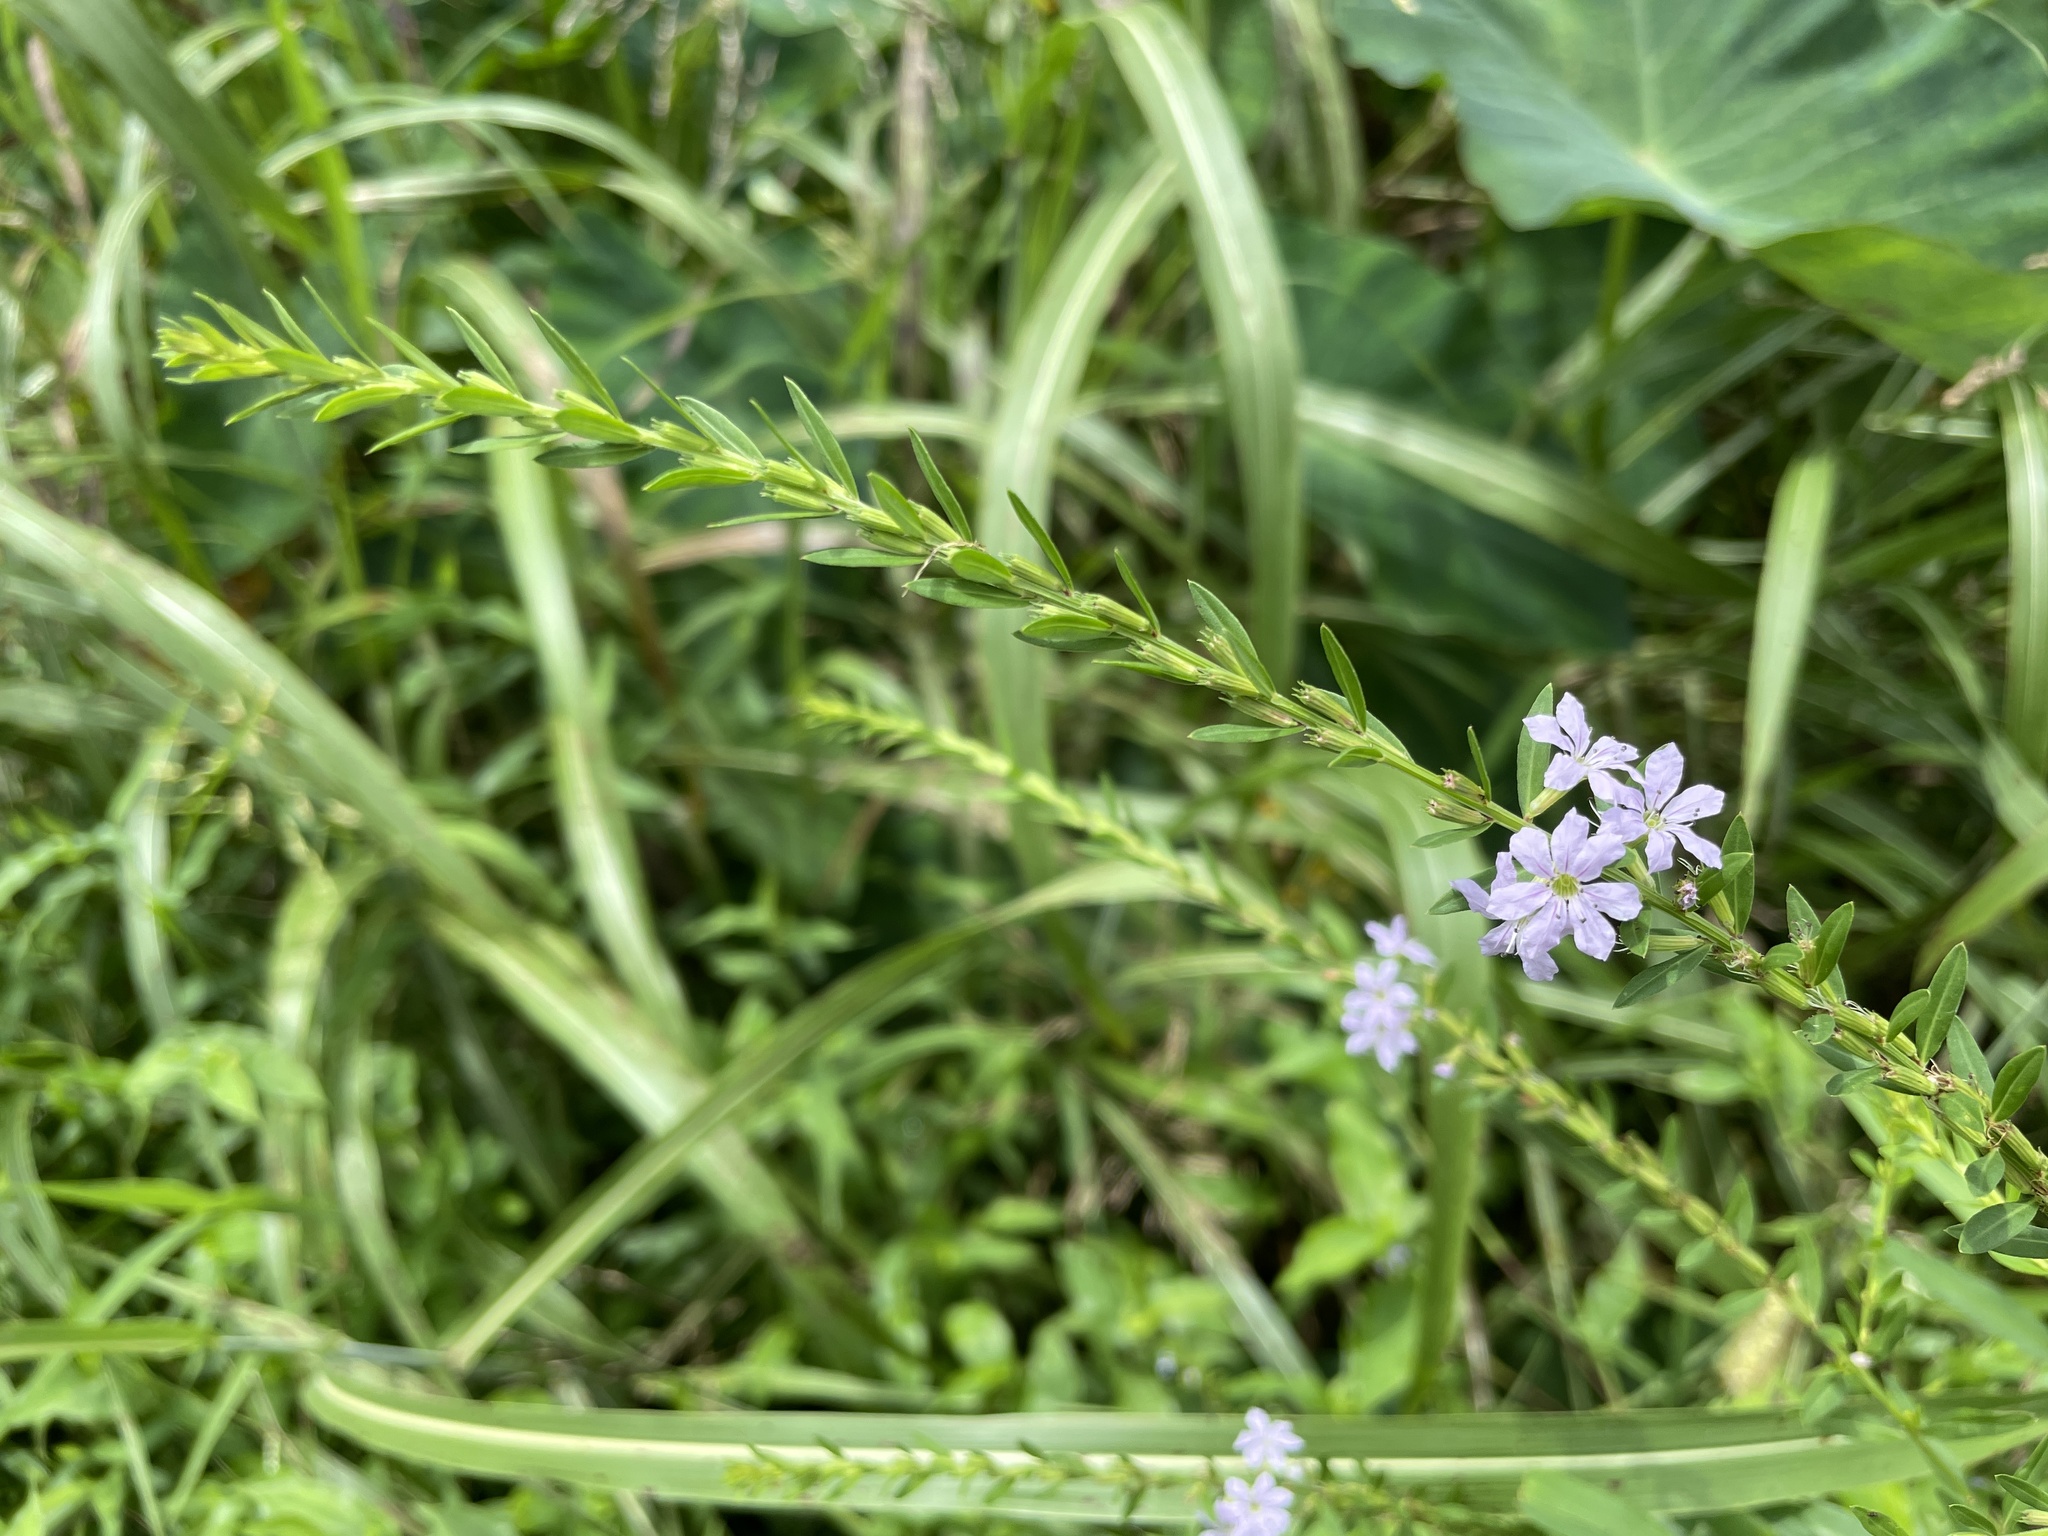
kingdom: Plantae
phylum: Tracheophyta
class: Magnoliopsida
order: Myrtales
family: Lythraceae
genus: Lythrum
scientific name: Lythrum alatum
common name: Winged loosestrife
